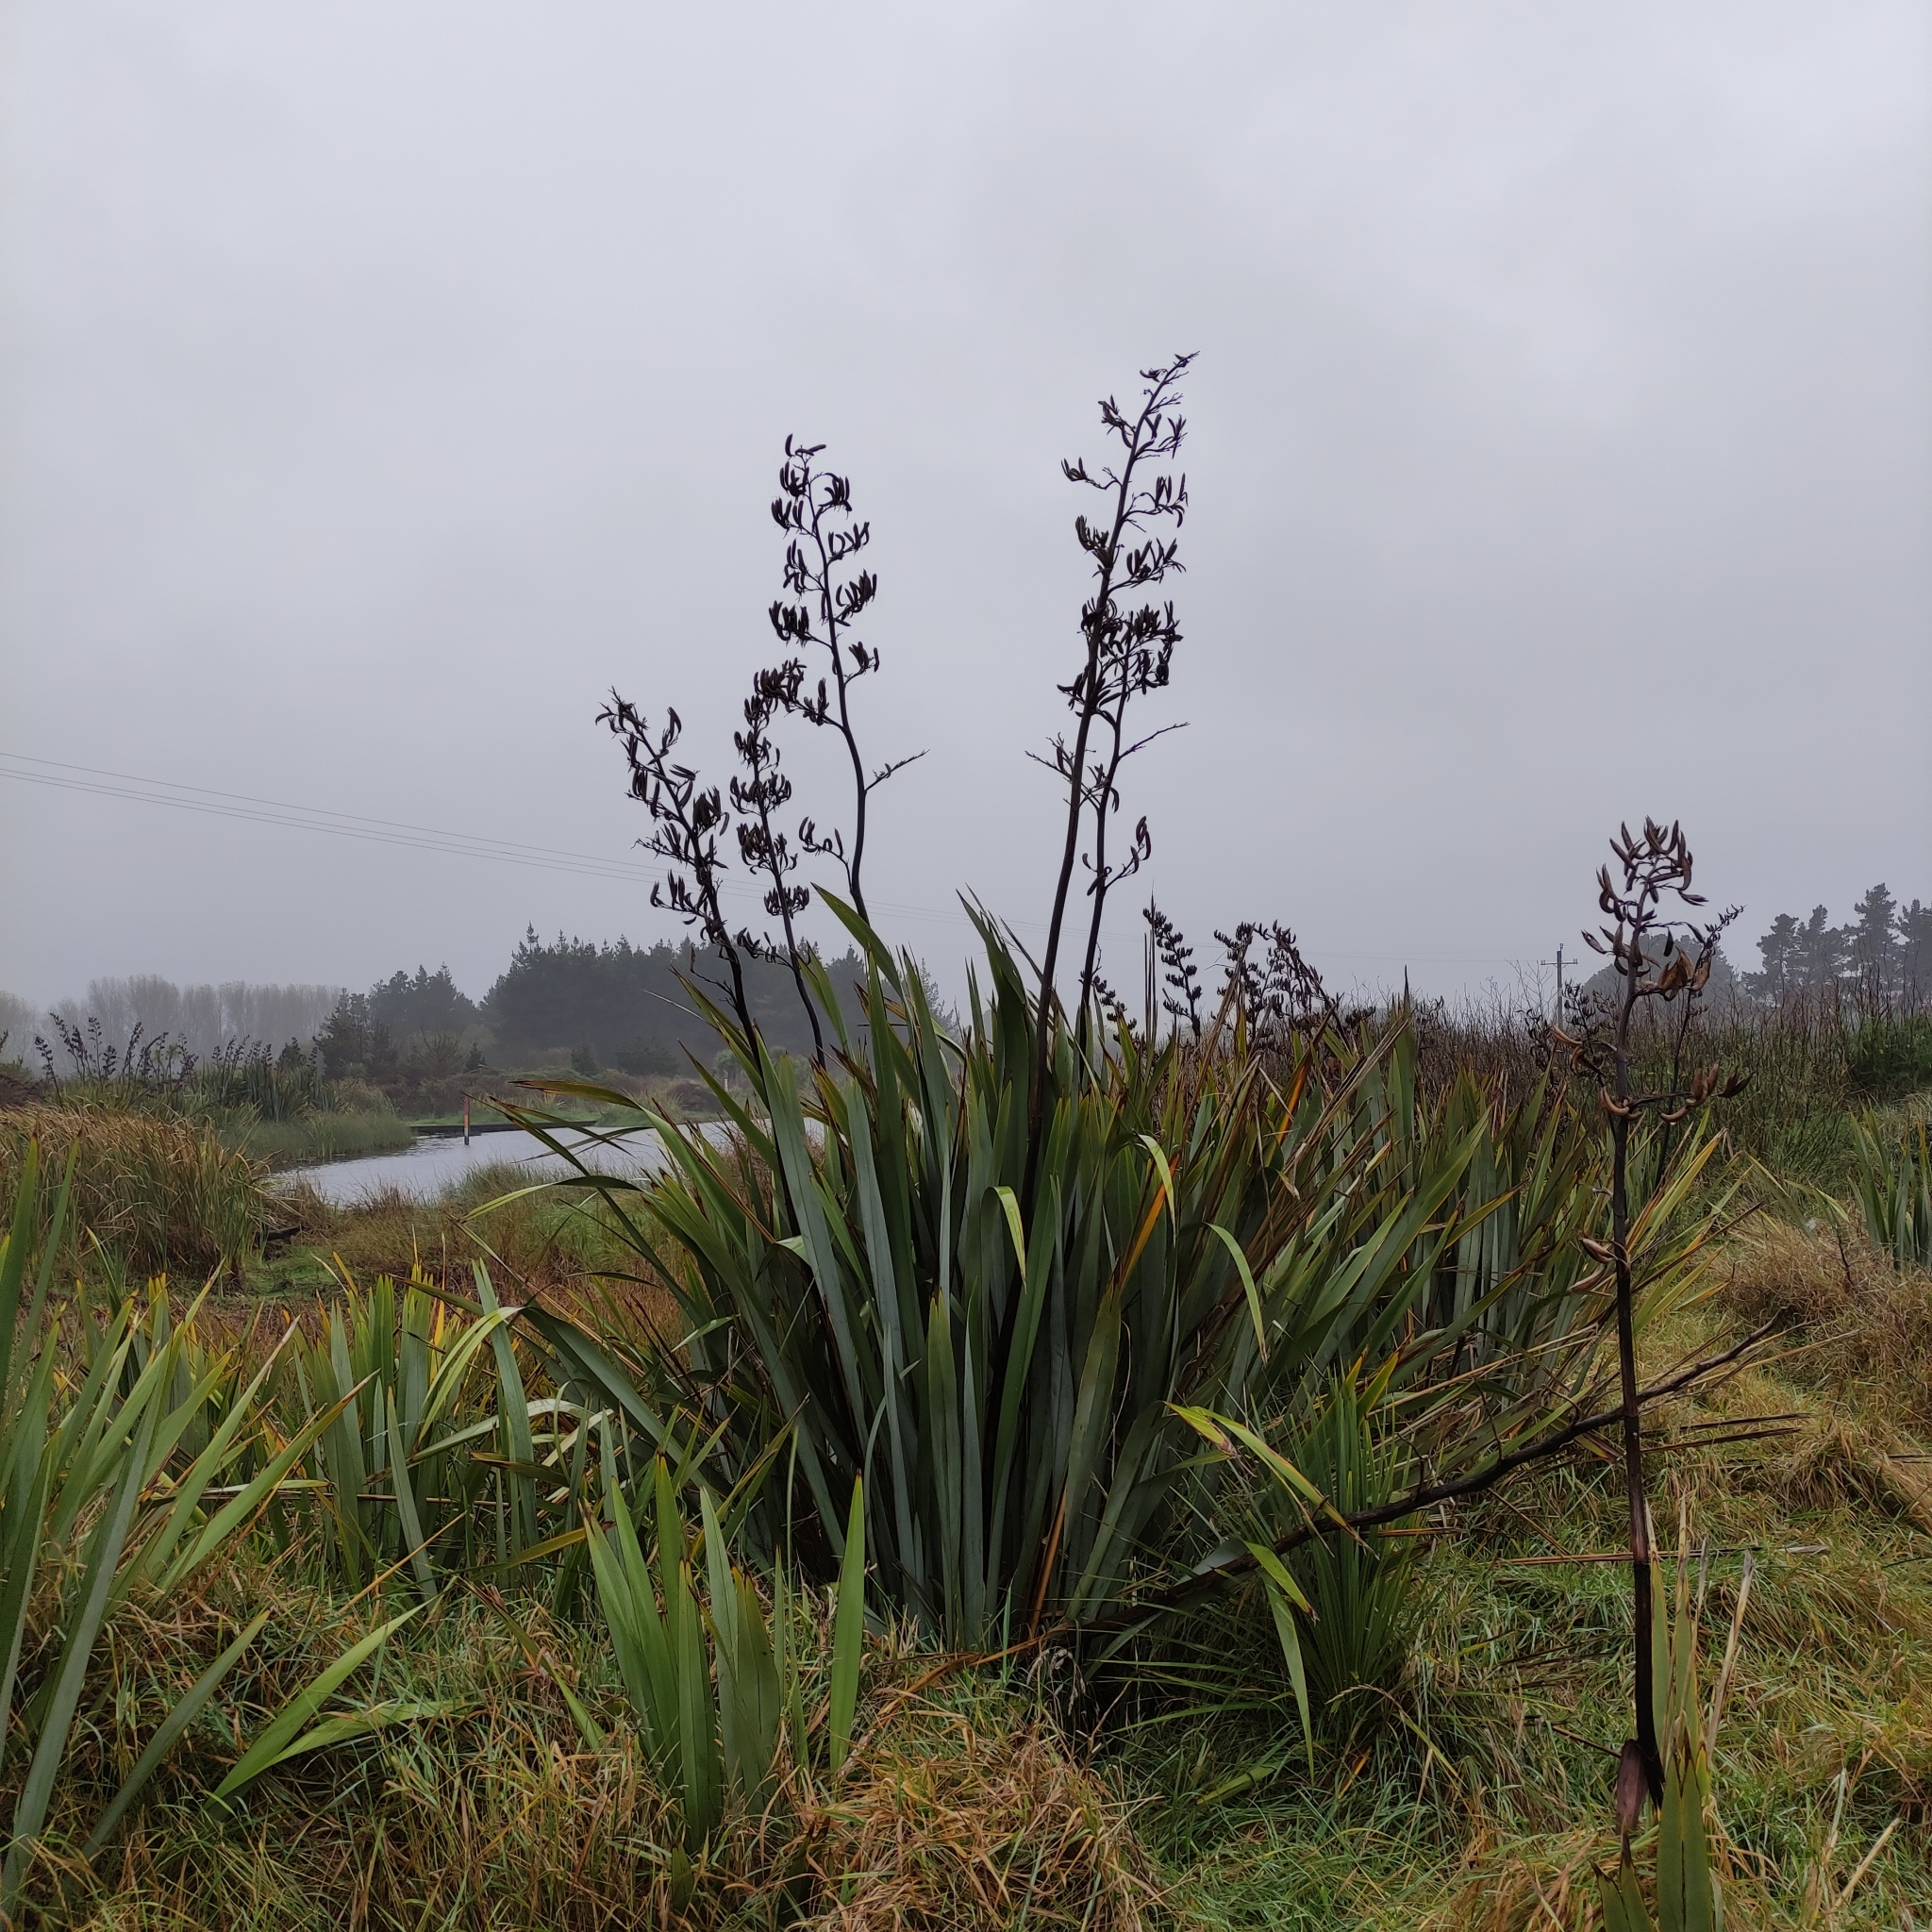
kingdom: Plantae
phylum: Tracheophyta
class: Liliopsida
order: Asparagales
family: Asphodelaceae
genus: Phormium
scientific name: Phormium tenax
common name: New zealand flax
